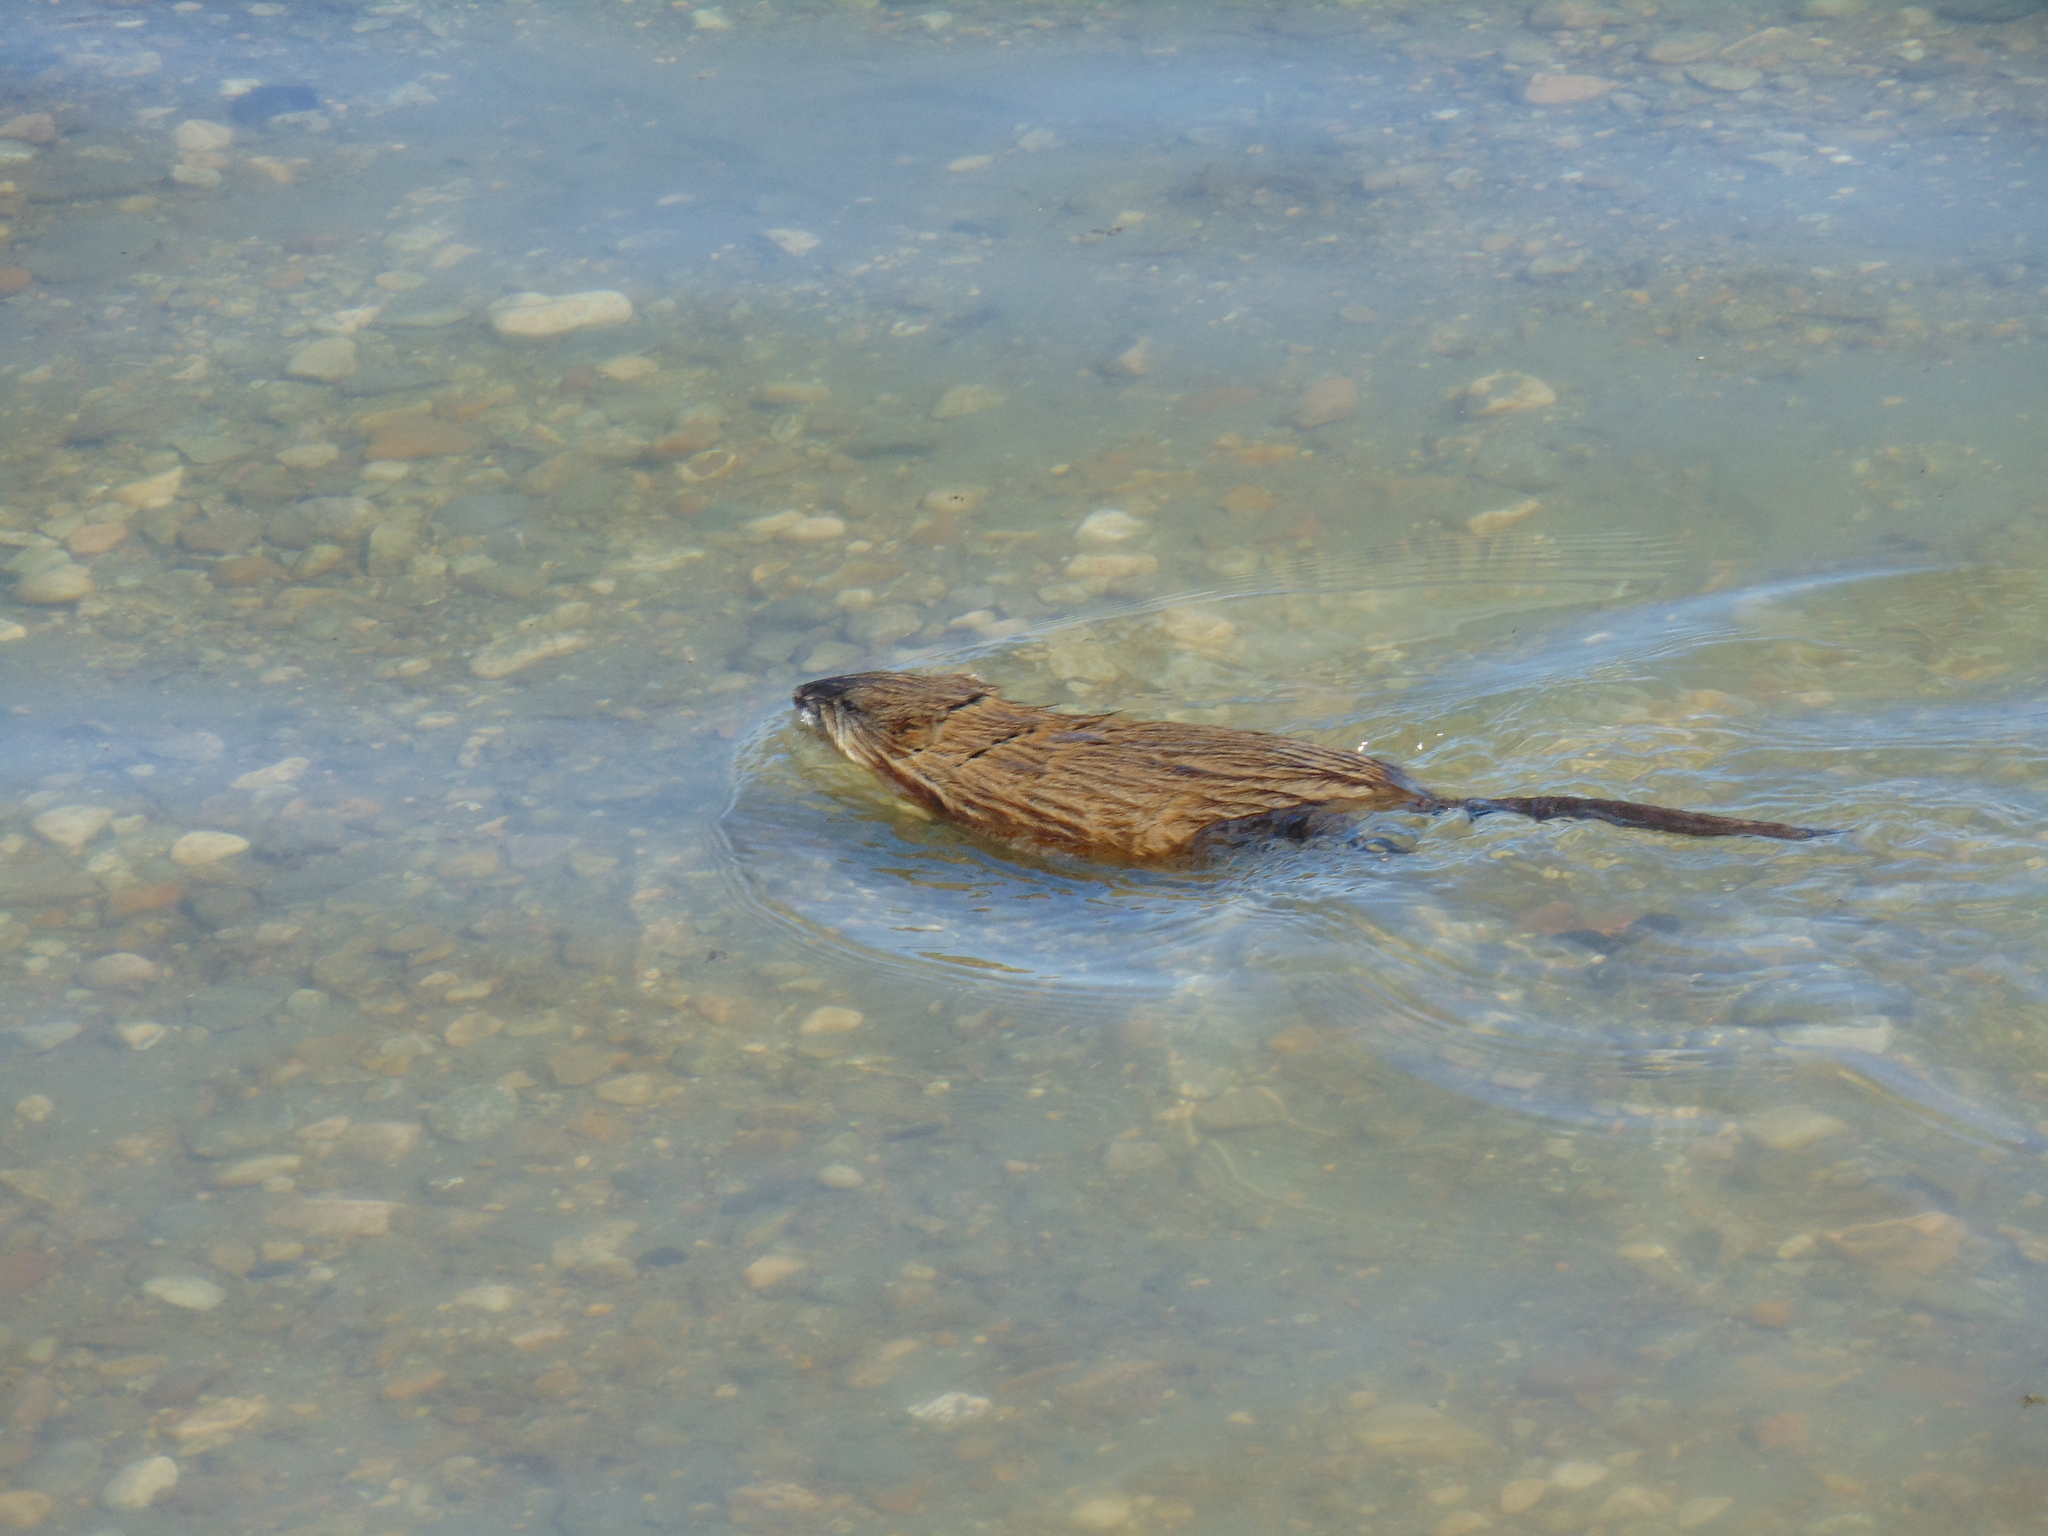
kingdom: Animalia
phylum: Chordata
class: Mammalia
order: Rodentia
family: Cricetidae
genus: Ondatra
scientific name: Ondatra zibethicus
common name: Muskrat
